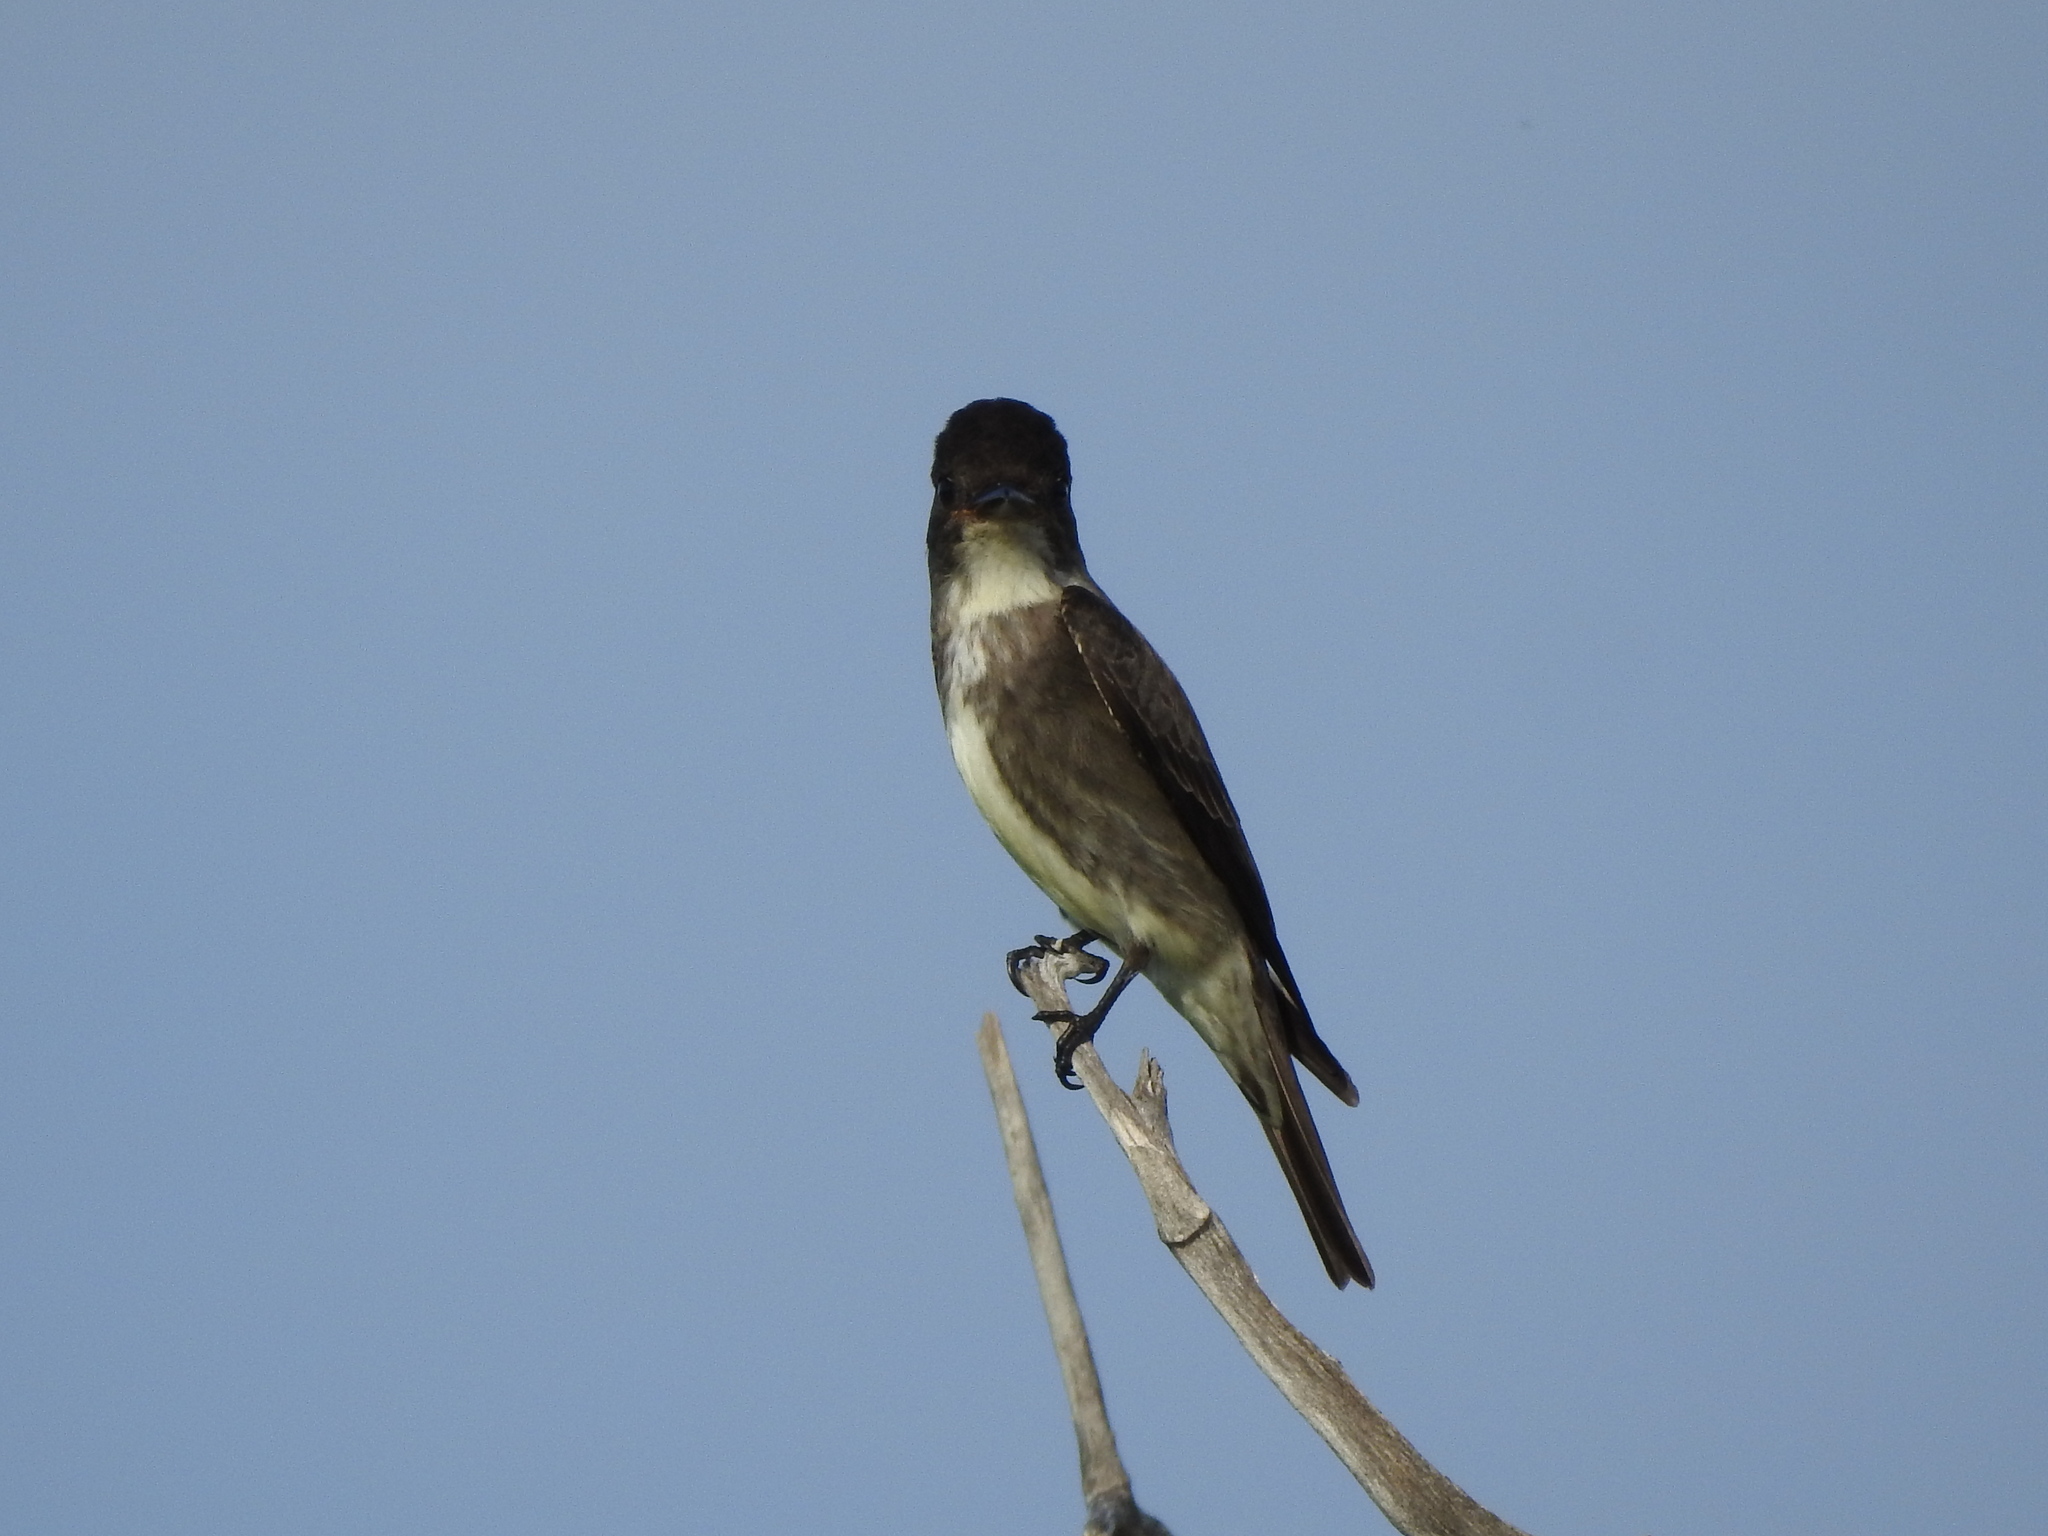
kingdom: Animalia
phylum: Chordata
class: Aves
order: Passeriformes
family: Tyrannidae
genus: Contopus
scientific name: Contopus cooperi
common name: Olive-sided flycatcher
